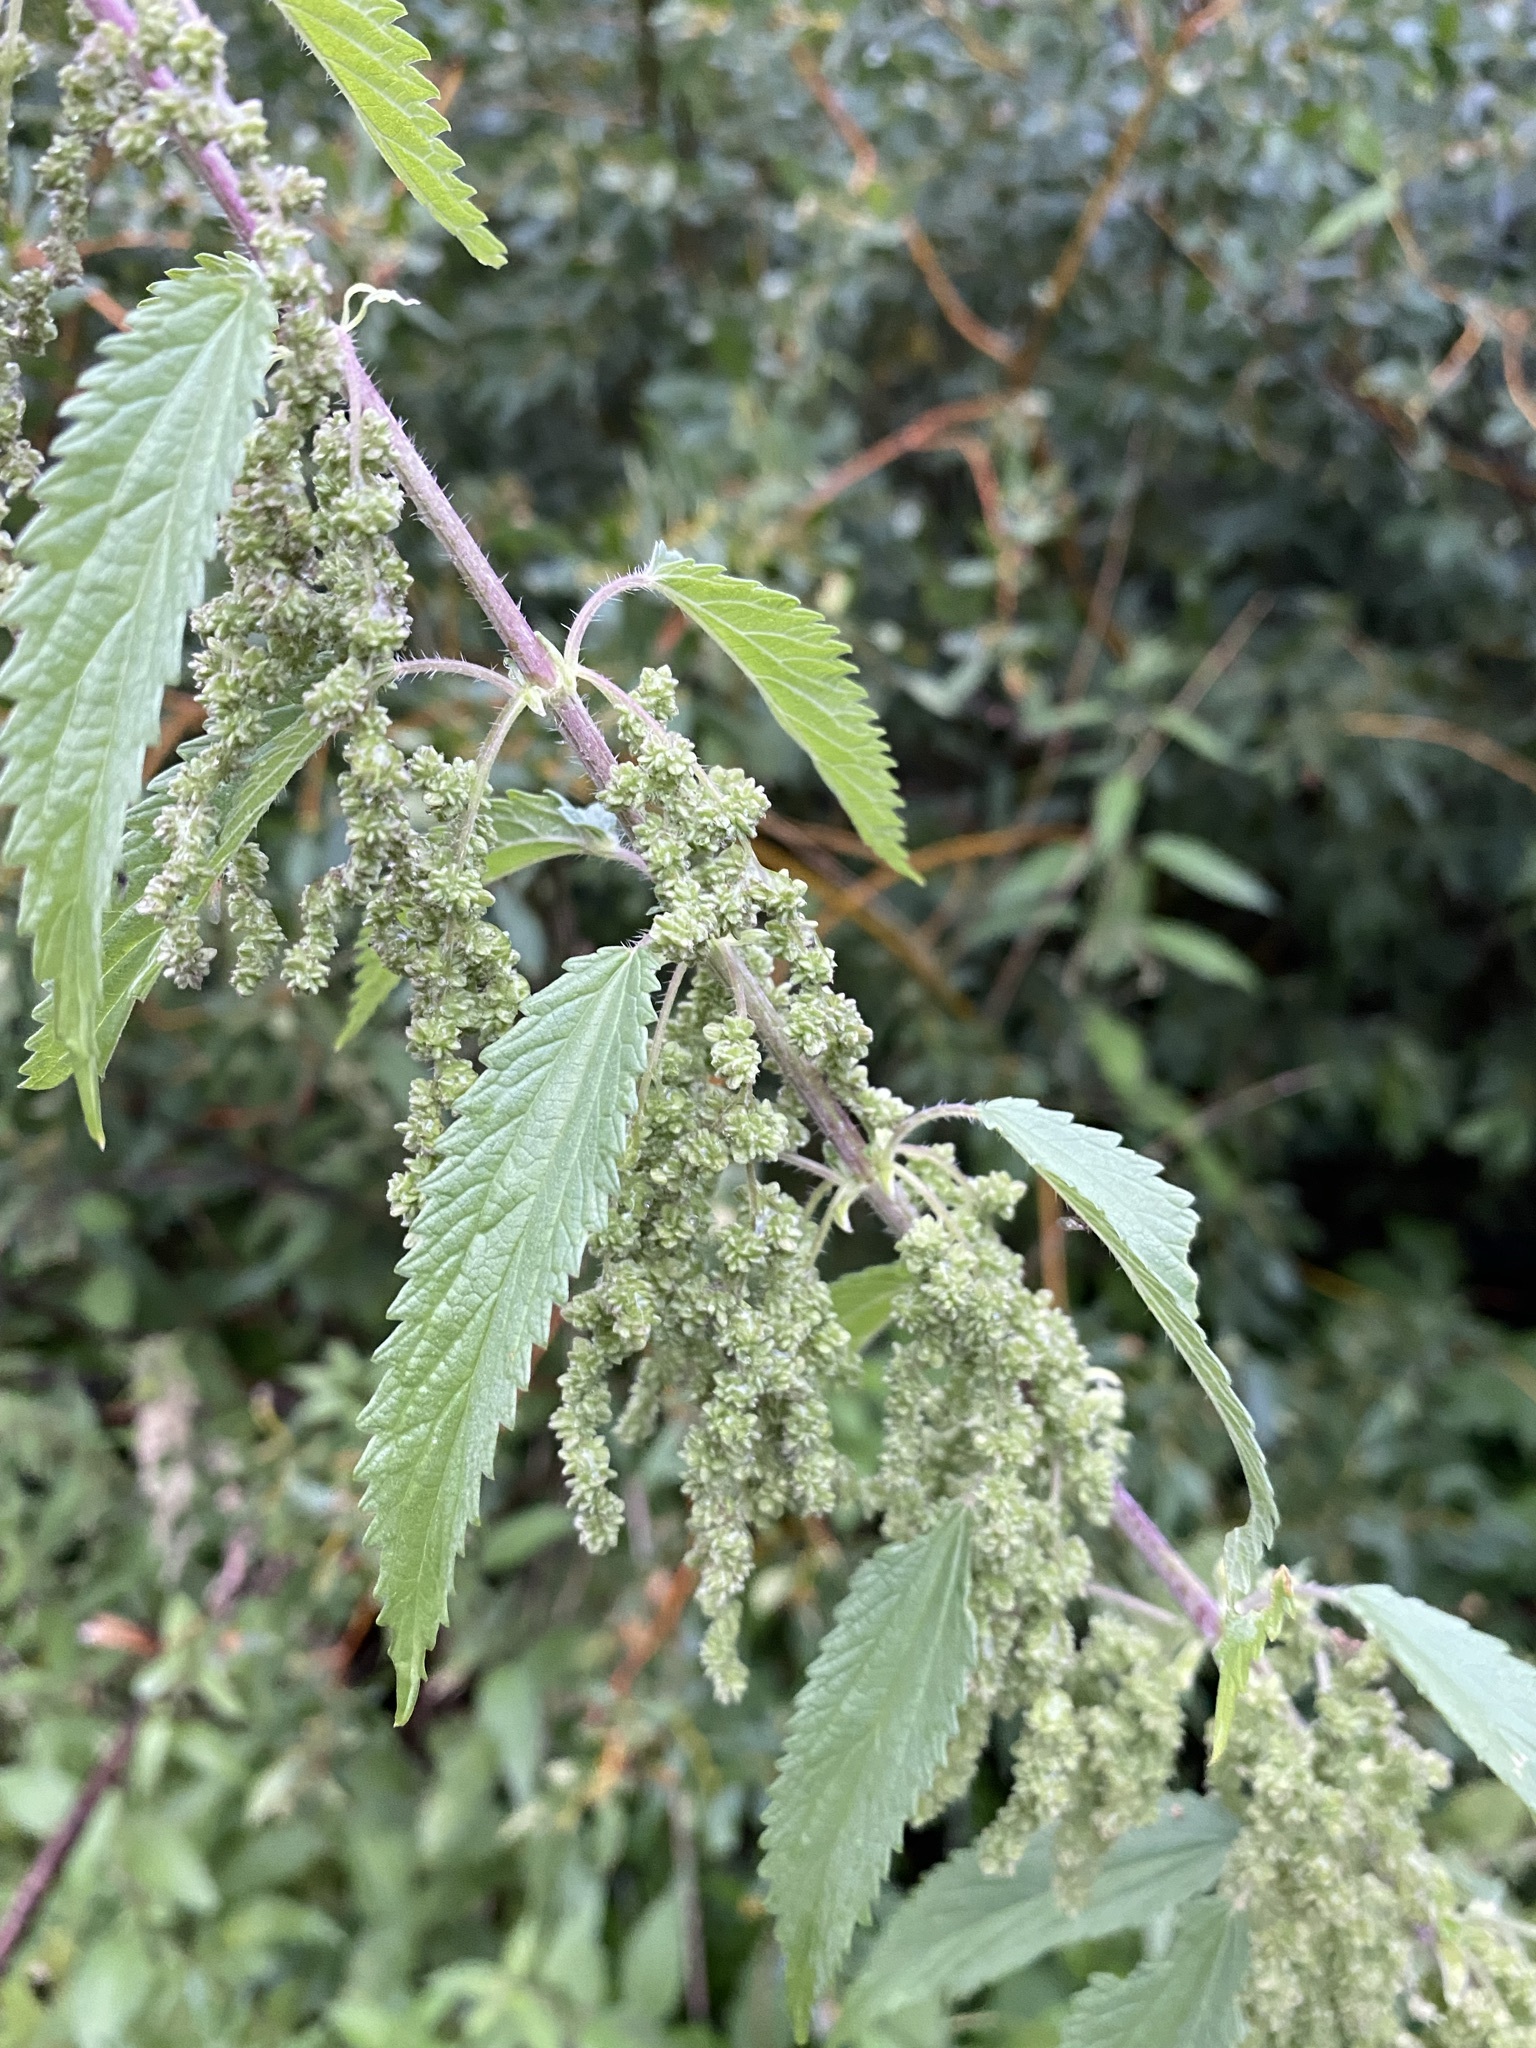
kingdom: Plantae
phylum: Tracheophyta
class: Magnoliopsida
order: Rosales
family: Urticaceae
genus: Urtica
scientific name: Urtica gracilis
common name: Slender stinging nettle
